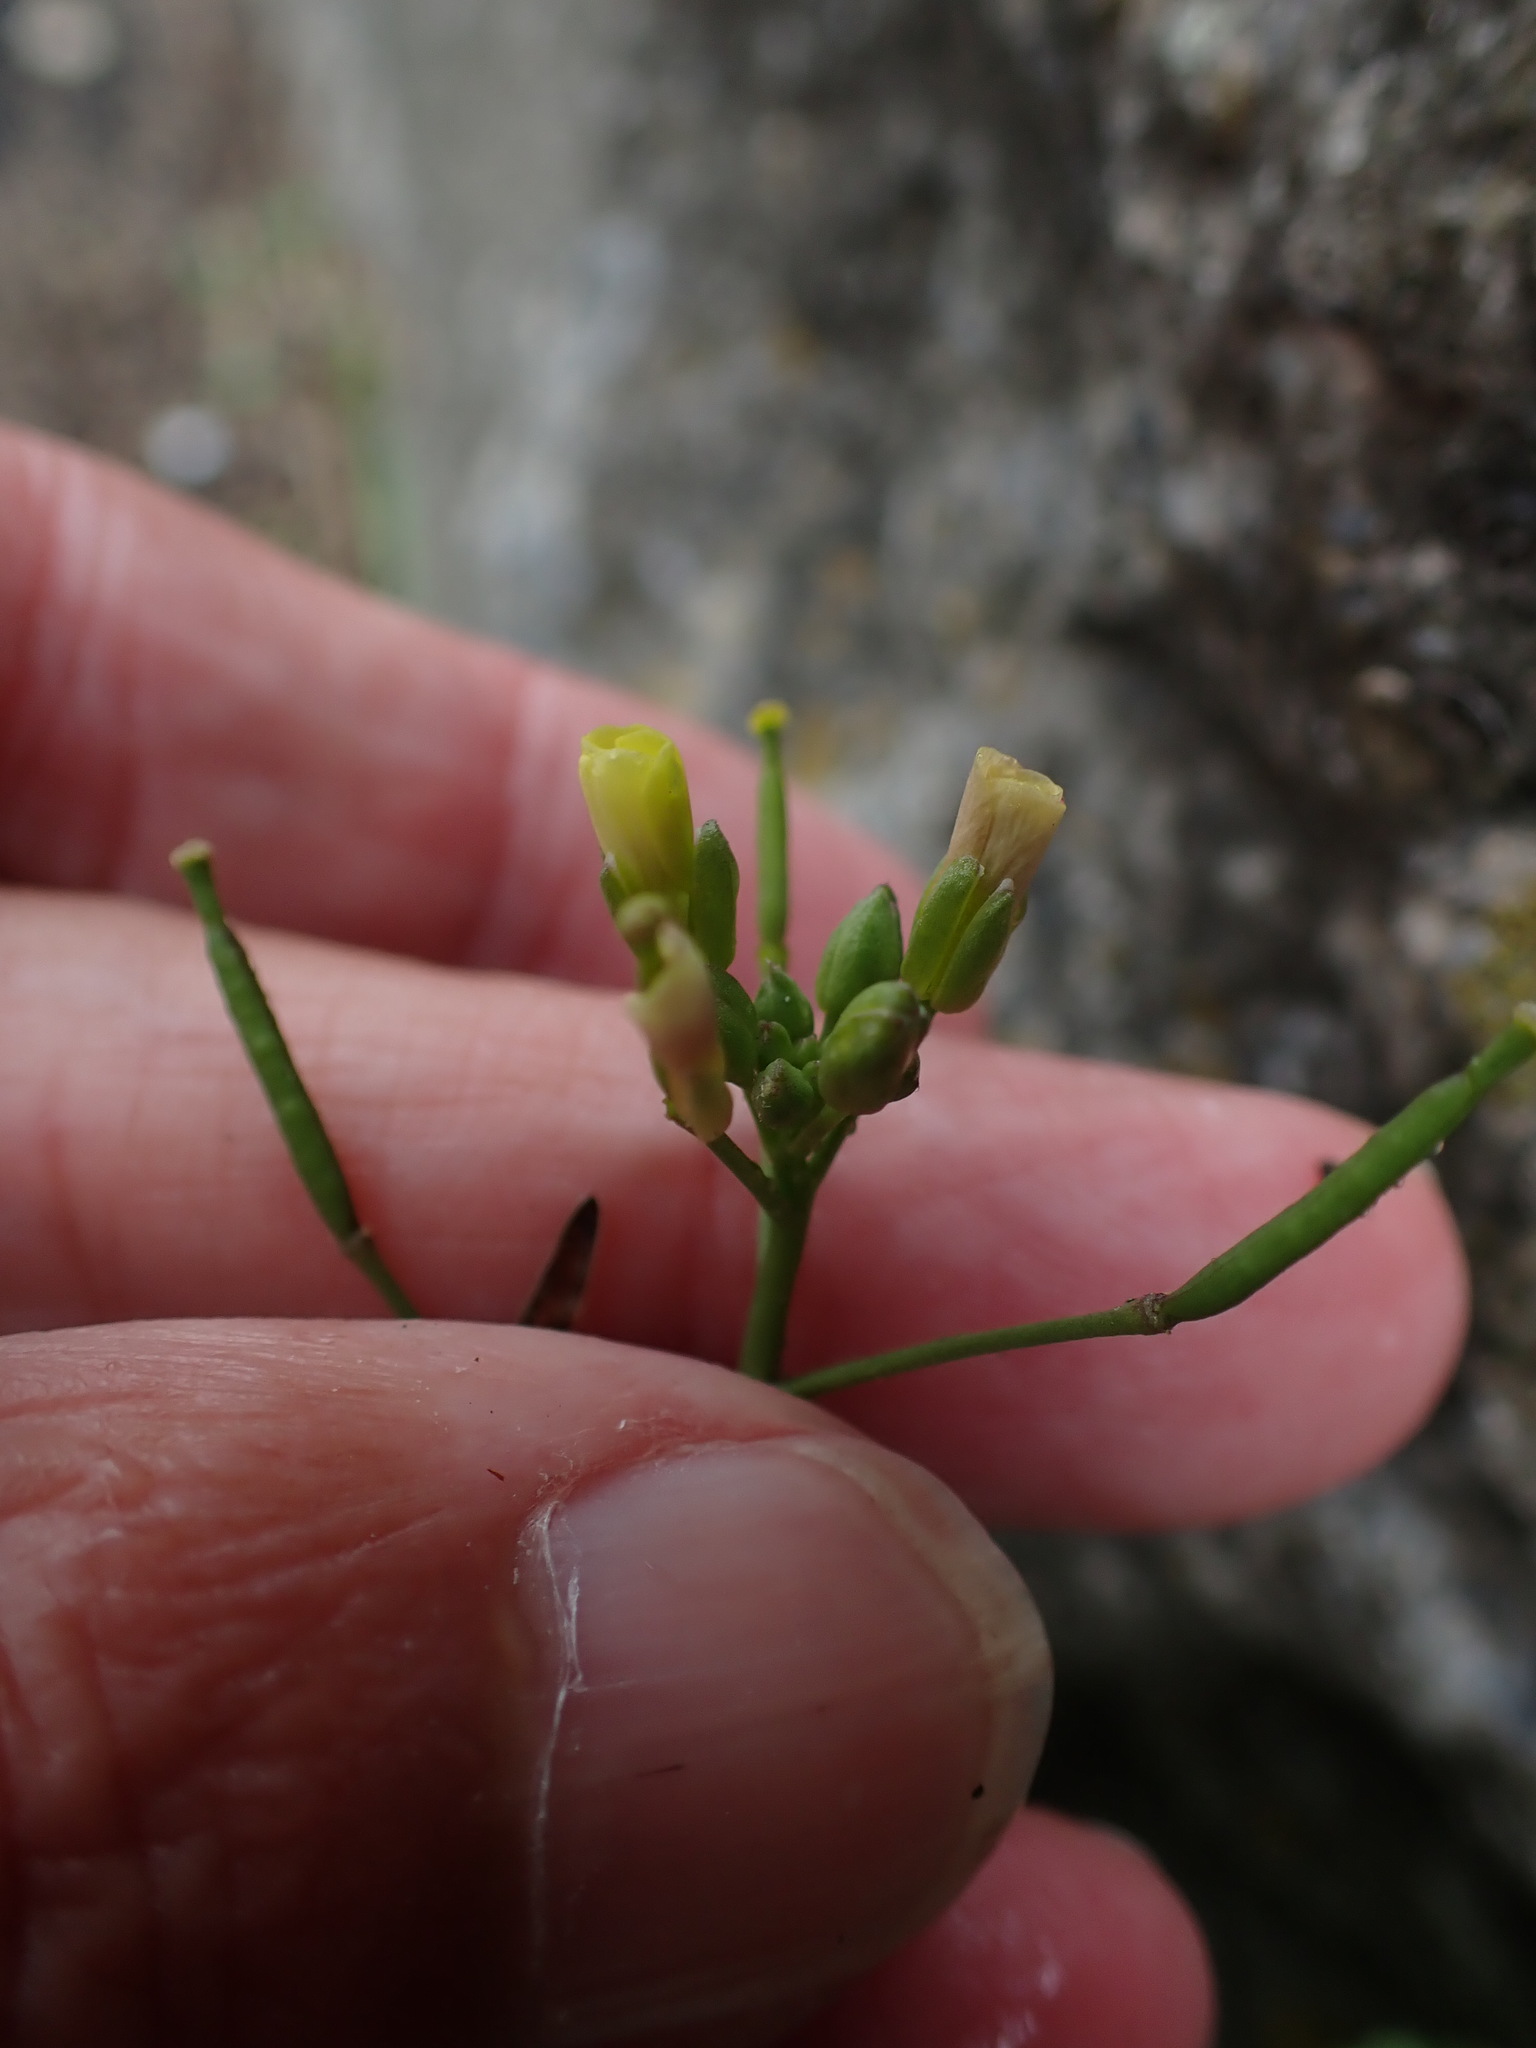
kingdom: Plantae
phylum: Tracheophyta
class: Magnoliopsida
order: Brassicales
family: Brassicaceae
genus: Diplotaxis
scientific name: Diplotaxis muralis
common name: Annual wall-rocket
